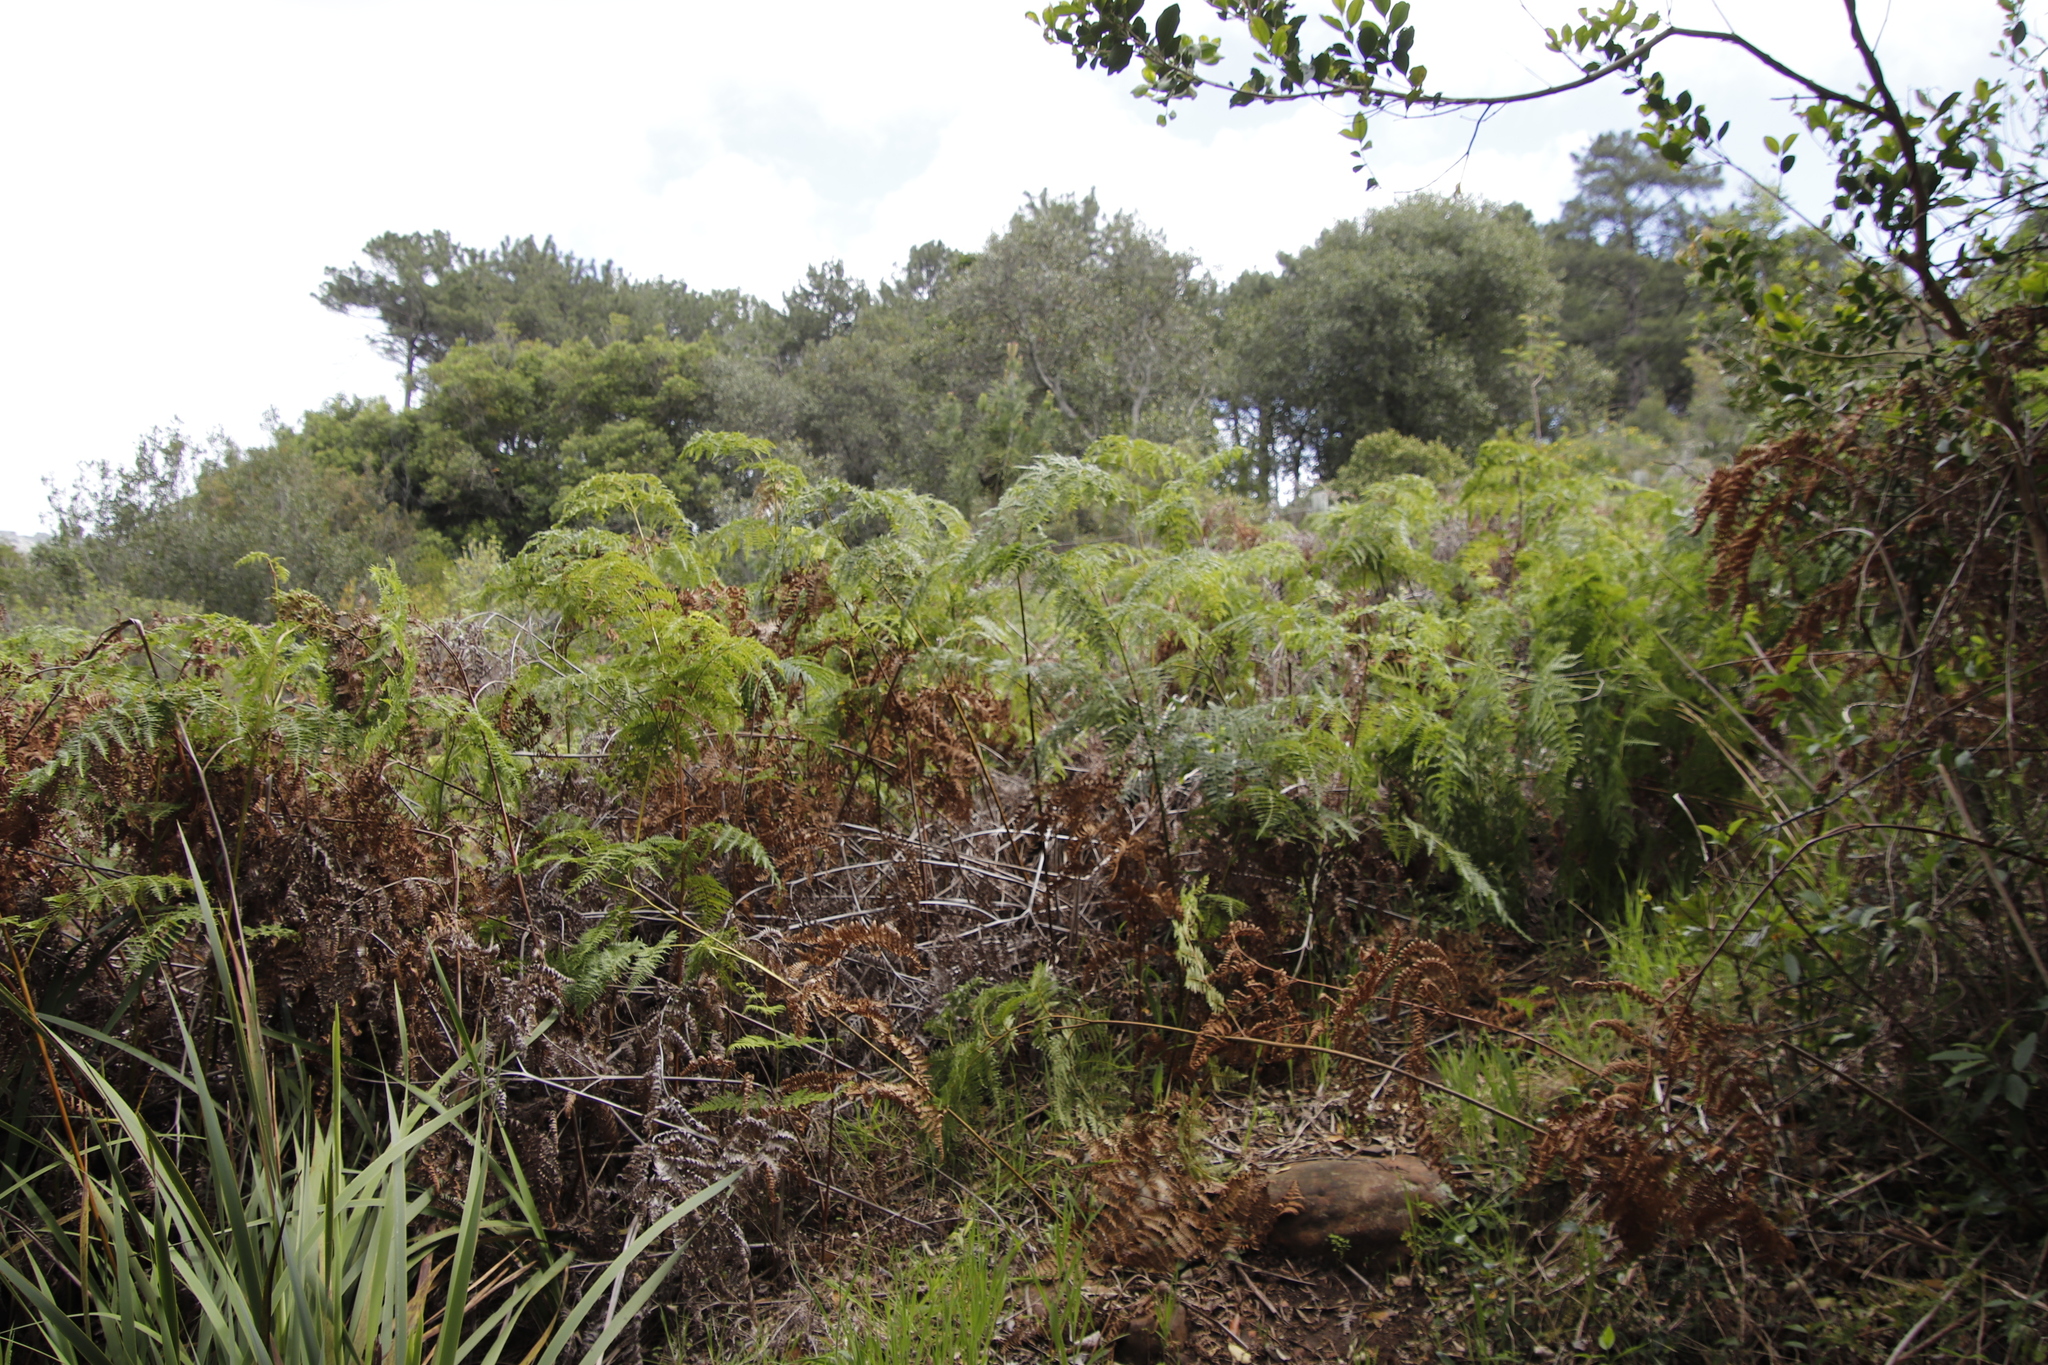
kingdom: Plantae
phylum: Tracheophyta
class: Polypodiopsida
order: Polypodiales
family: Dennstaedtiaceae
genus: Pteridium
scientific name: Pteridium aquilinum
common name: Bracken
